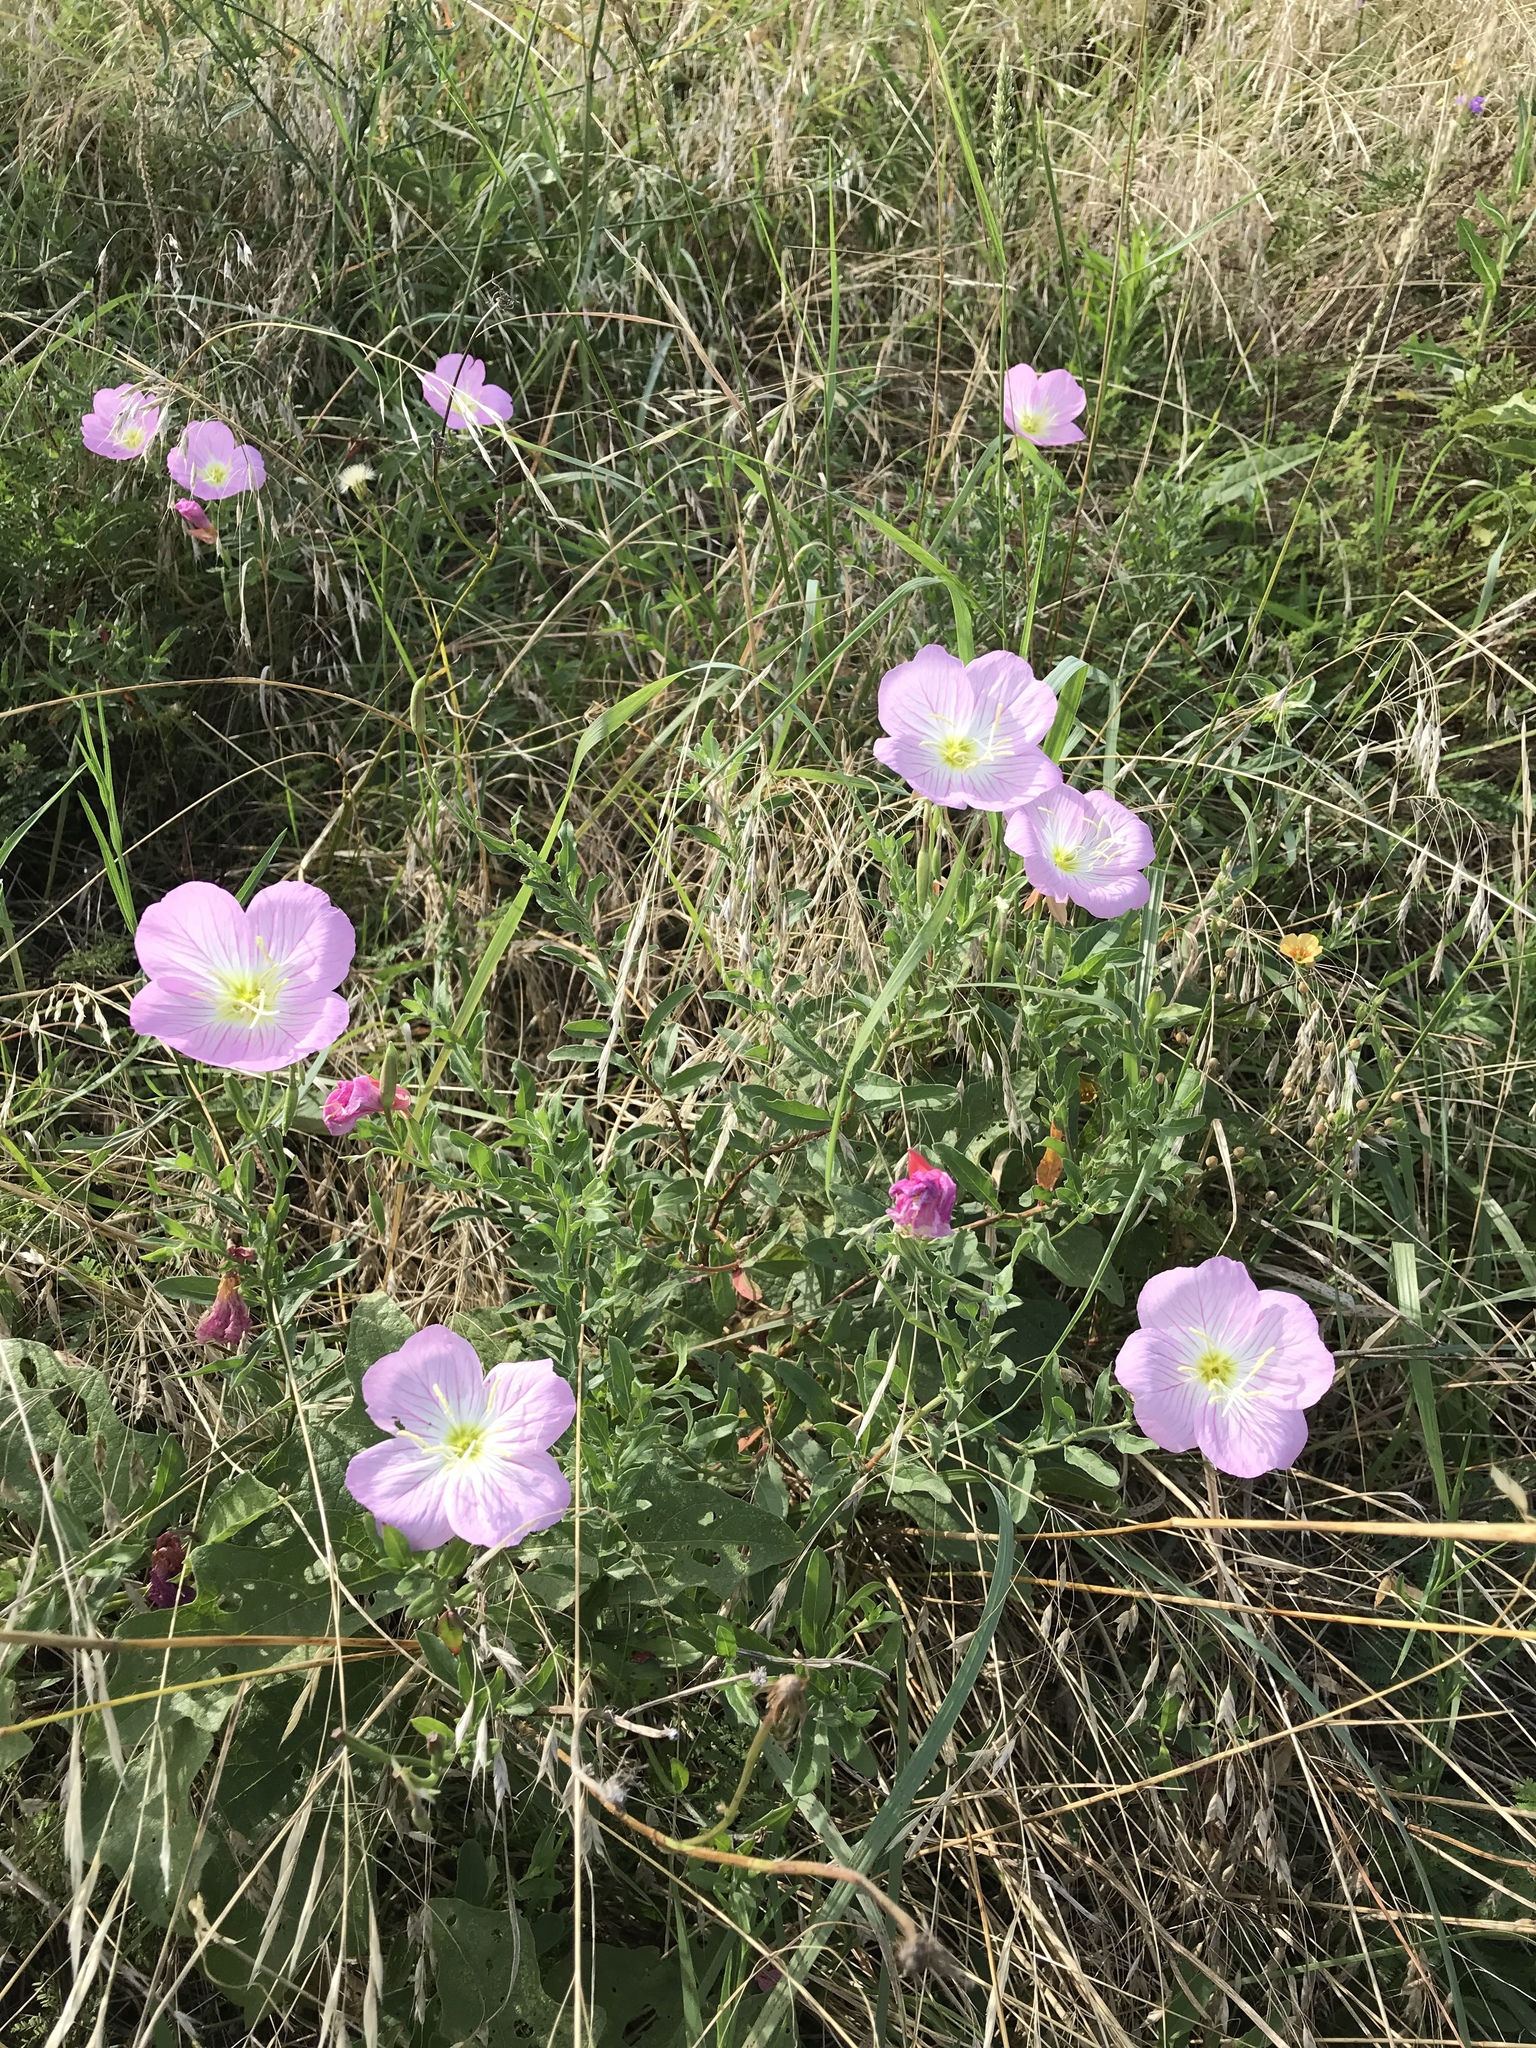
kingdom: Plantae
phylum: Tracheophyta
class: Magnoliopsida
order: Myrtales
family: Onagraceae
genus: Oenothera
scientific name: Oenothera speciosa
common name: White evening-primrose
